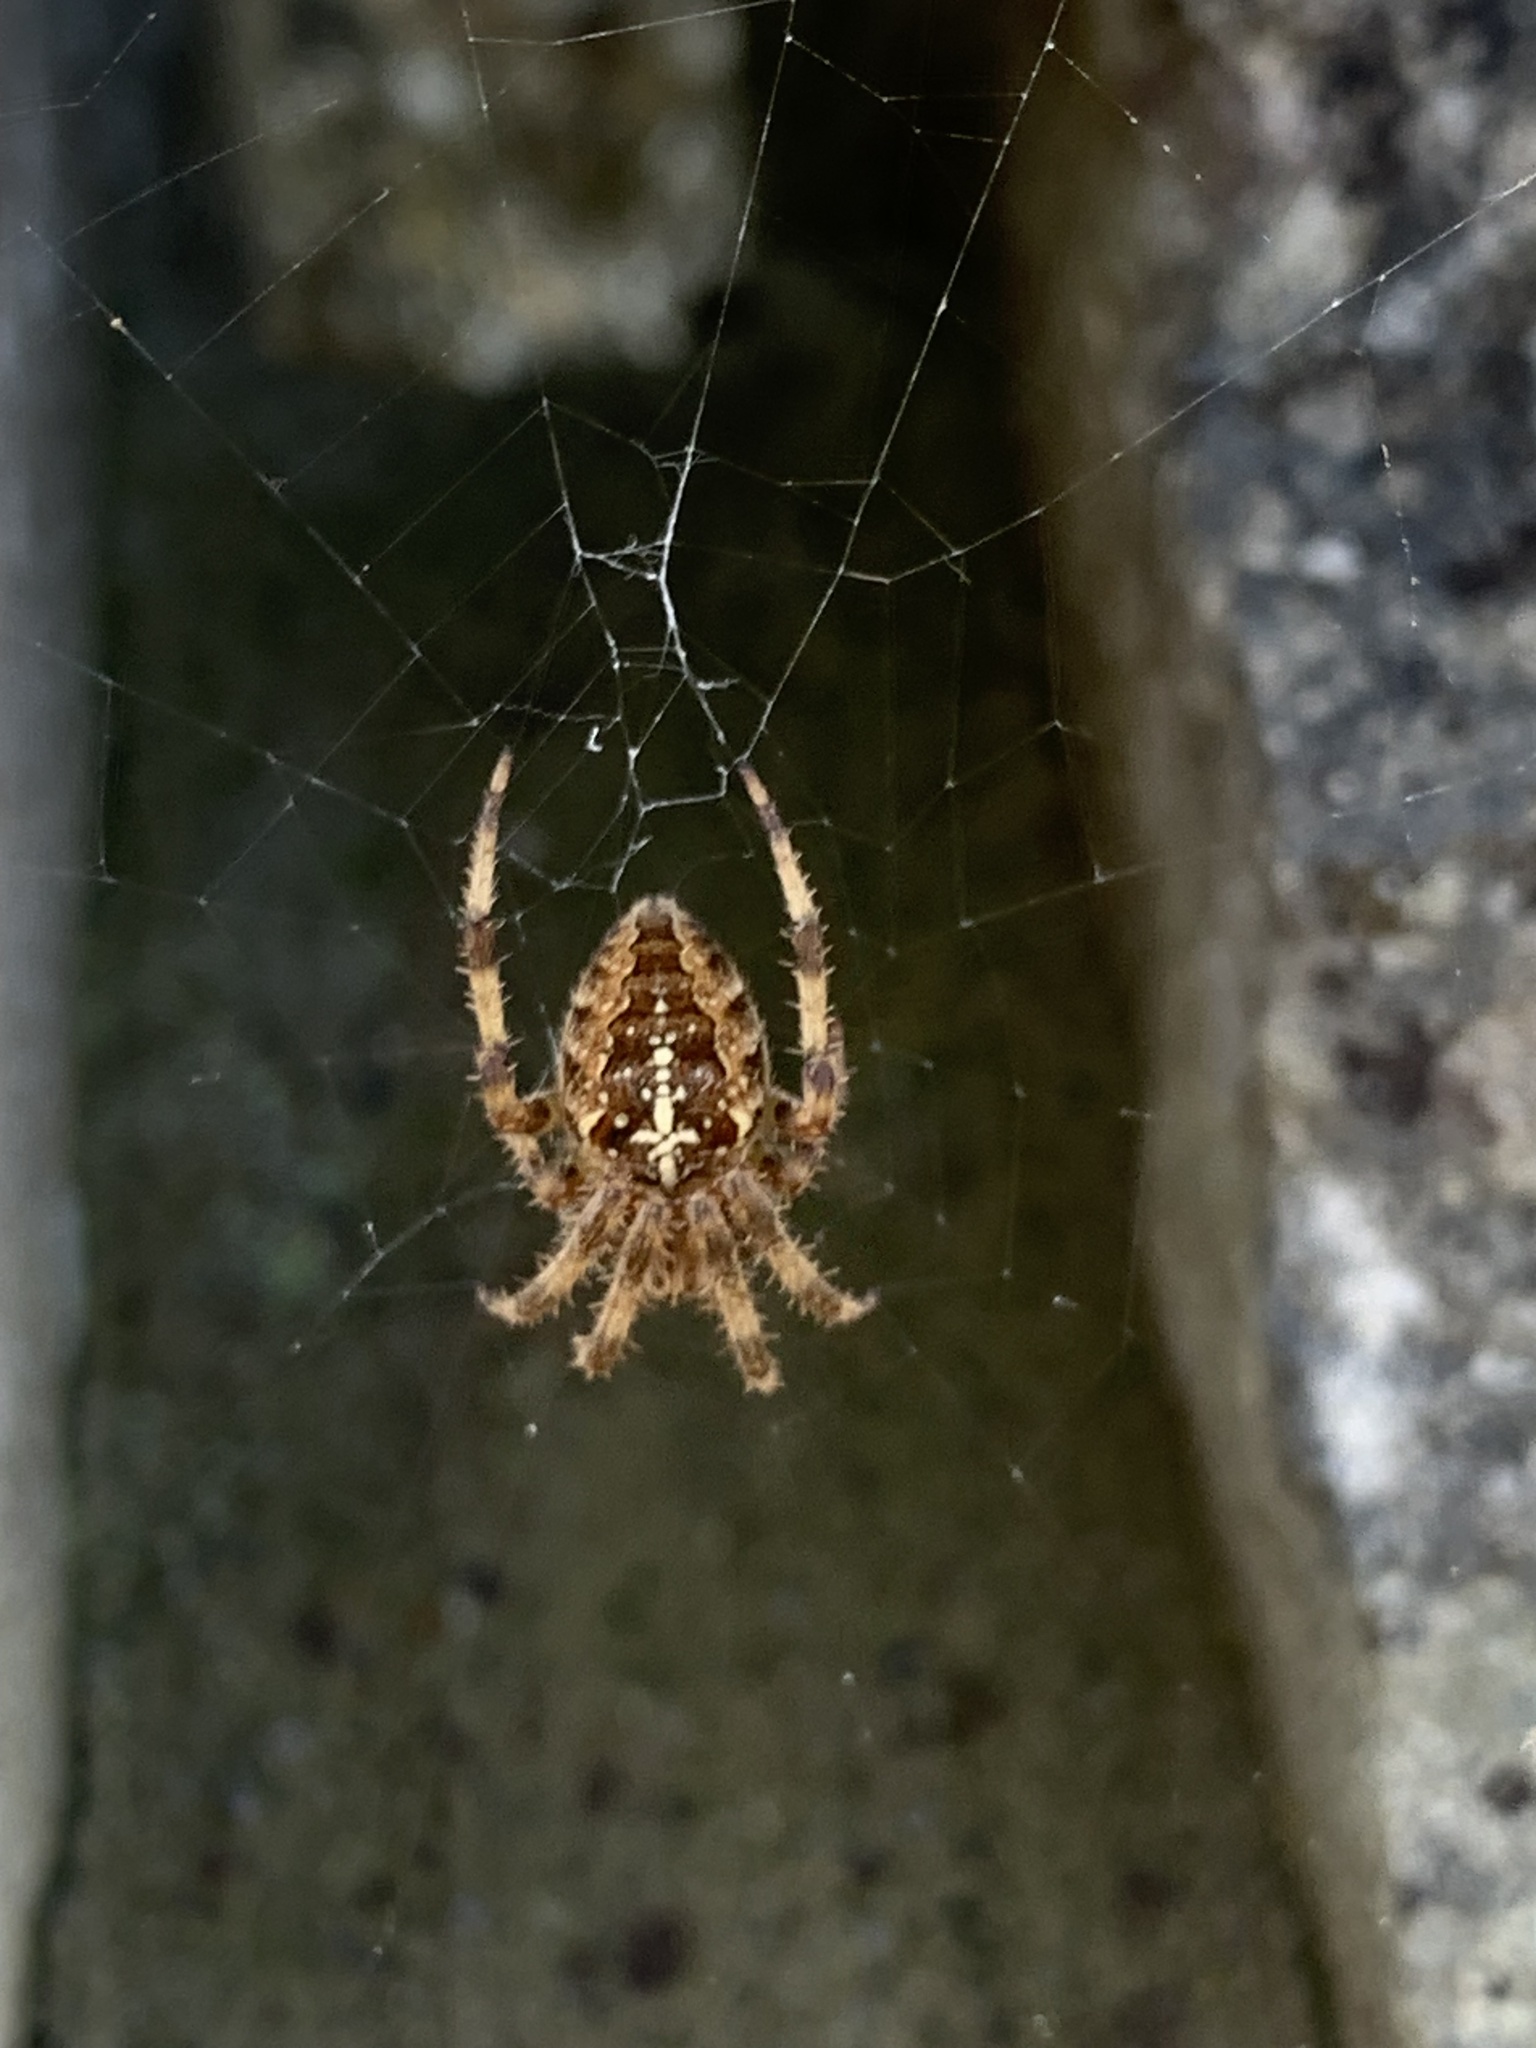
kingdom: Animalia
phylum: Arthropoda
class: Arachnida
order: Araneae
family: Araneidae
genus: Araneus
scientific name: Araneus diadematus
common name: Cross orbweaver
